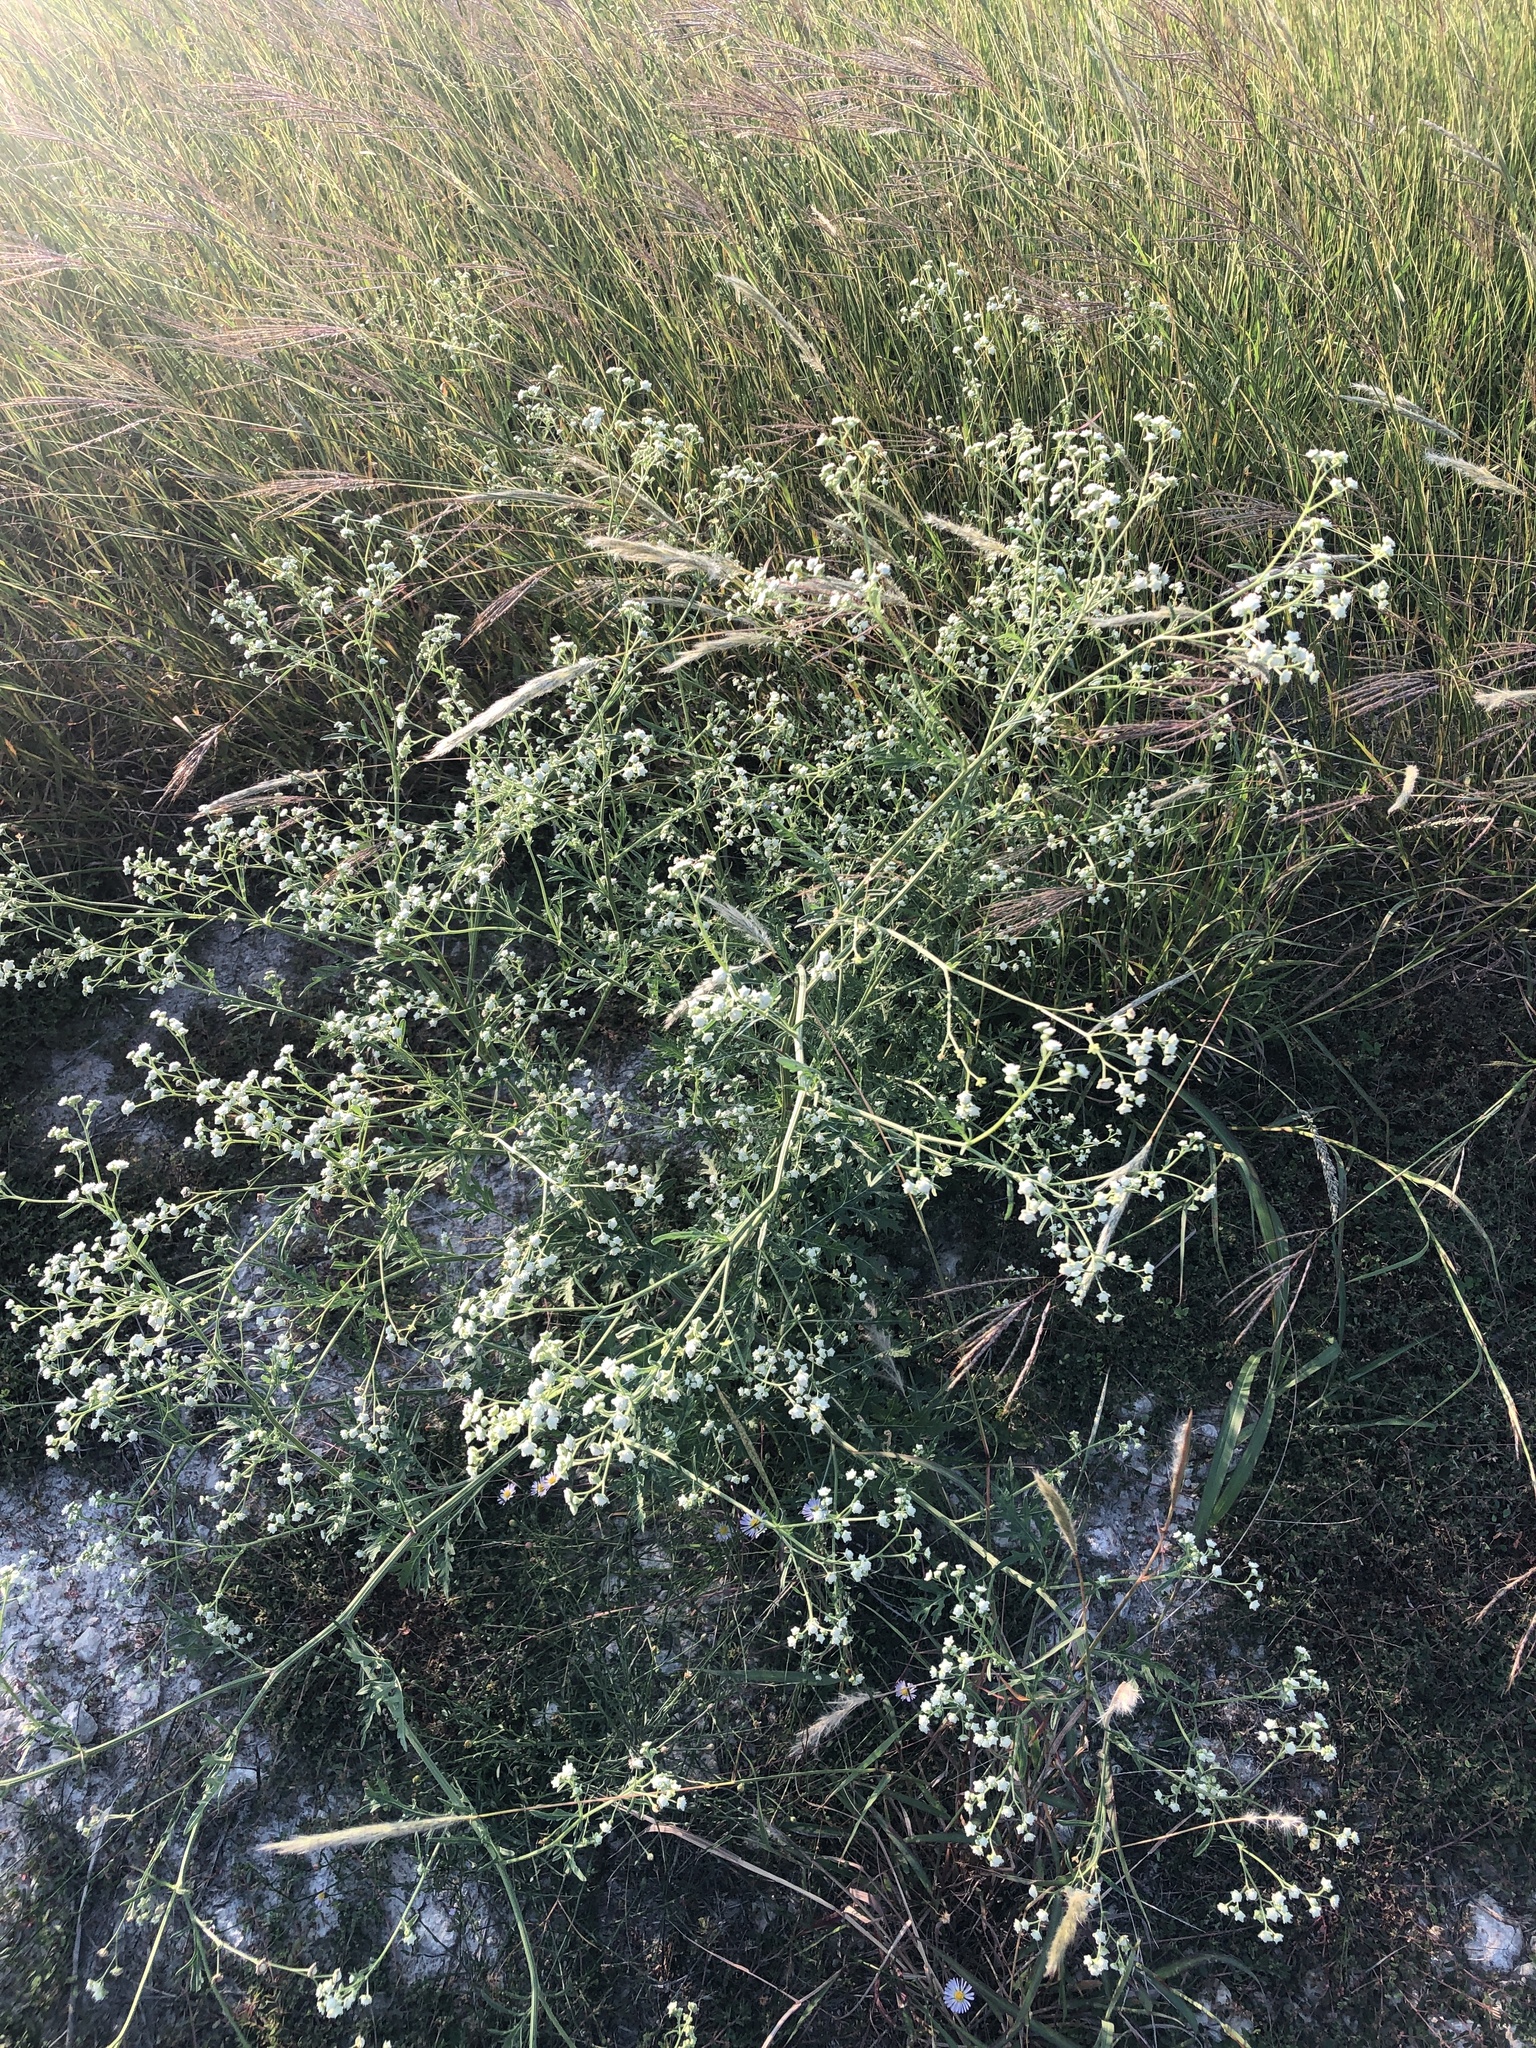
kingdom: Plantae
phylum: Tracheophyta
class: Magnoliopsida
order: Asterales
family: Asteraceae
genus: Parthenium
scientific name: Parthenium hysterophorus
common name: Santa maria feverfew
